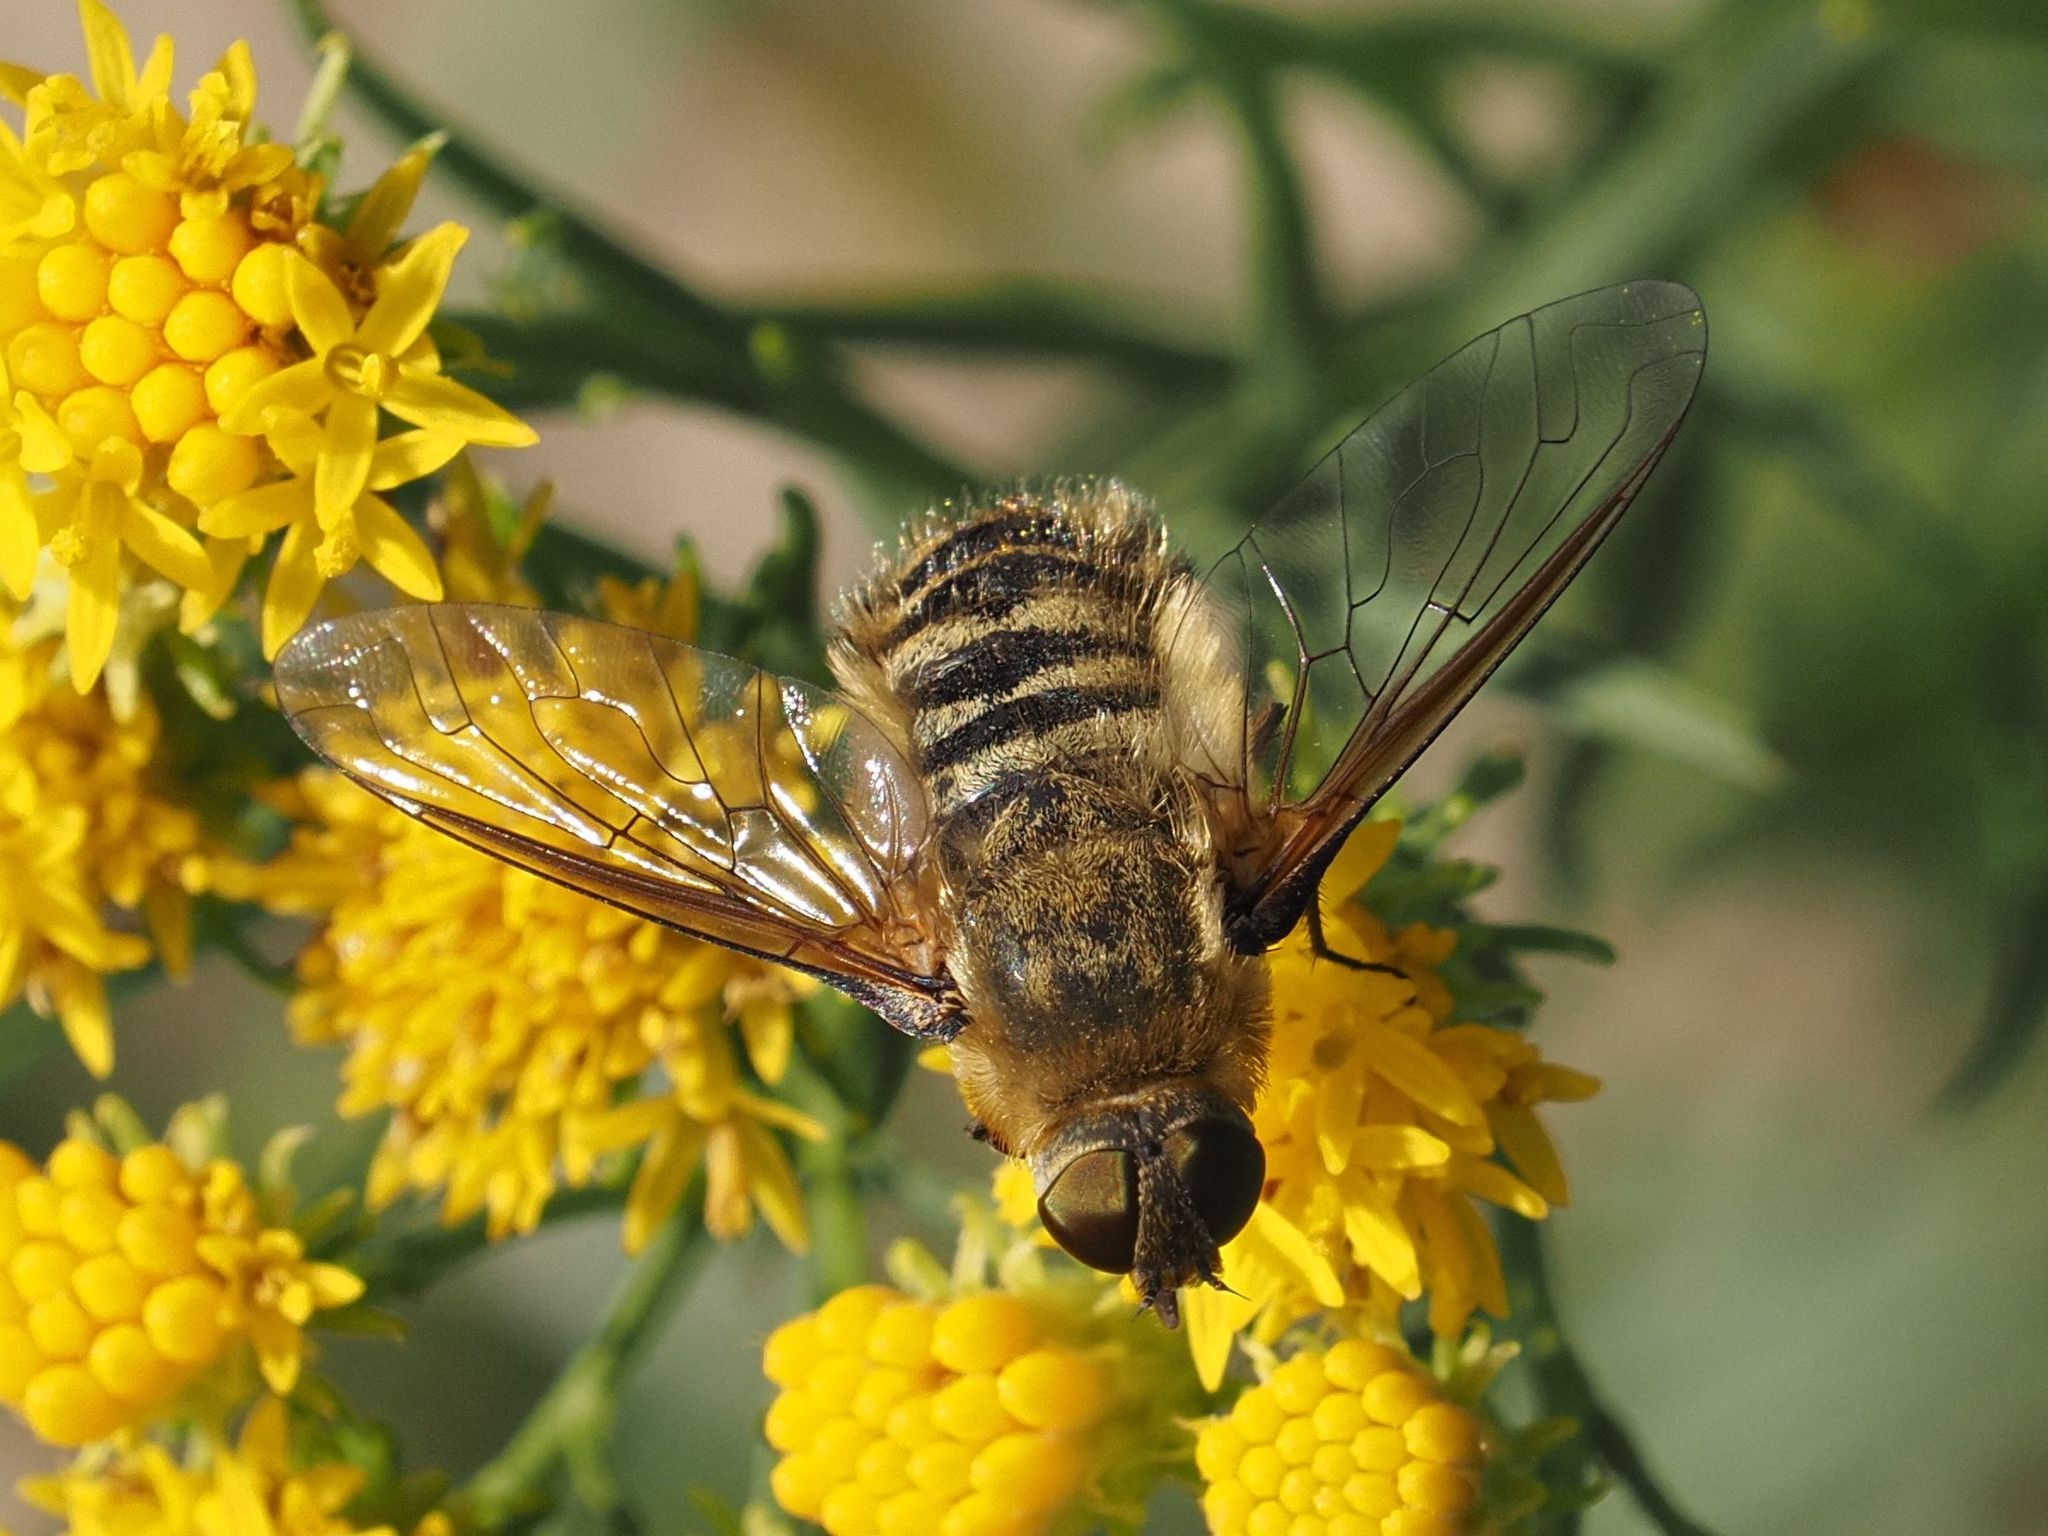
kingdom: Animalia
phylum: Arthropoda
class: Insecta
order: Diptera
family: Bombyliidae
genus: Villa
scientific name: Villa hottentotta
